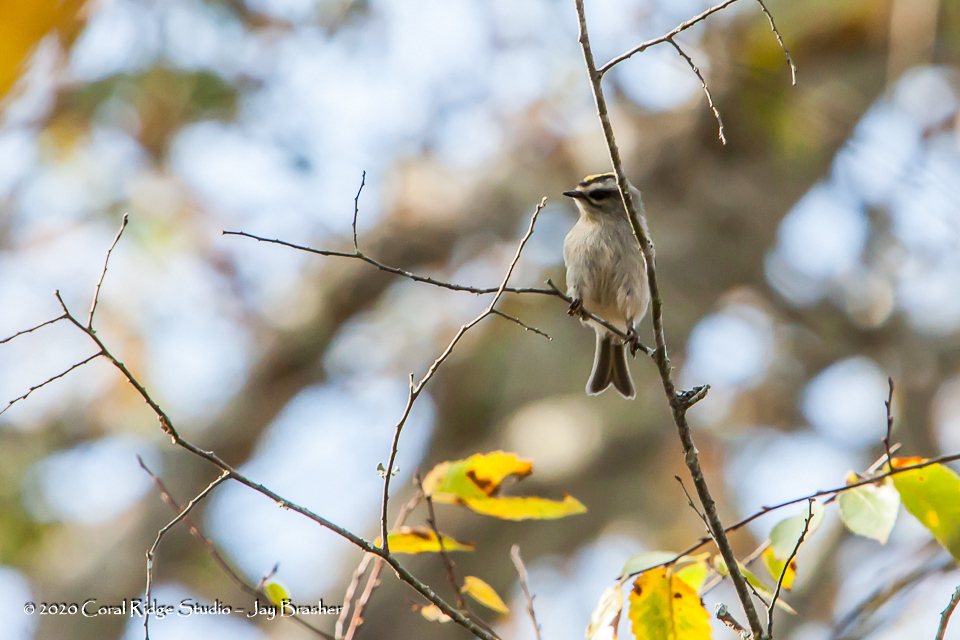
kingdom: Animalia
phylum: Chordata
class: Aves
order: Passeriformes
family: Regulidae
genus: Regulus
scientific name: Regulus satrapa
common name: Golden-crowned kinglet
